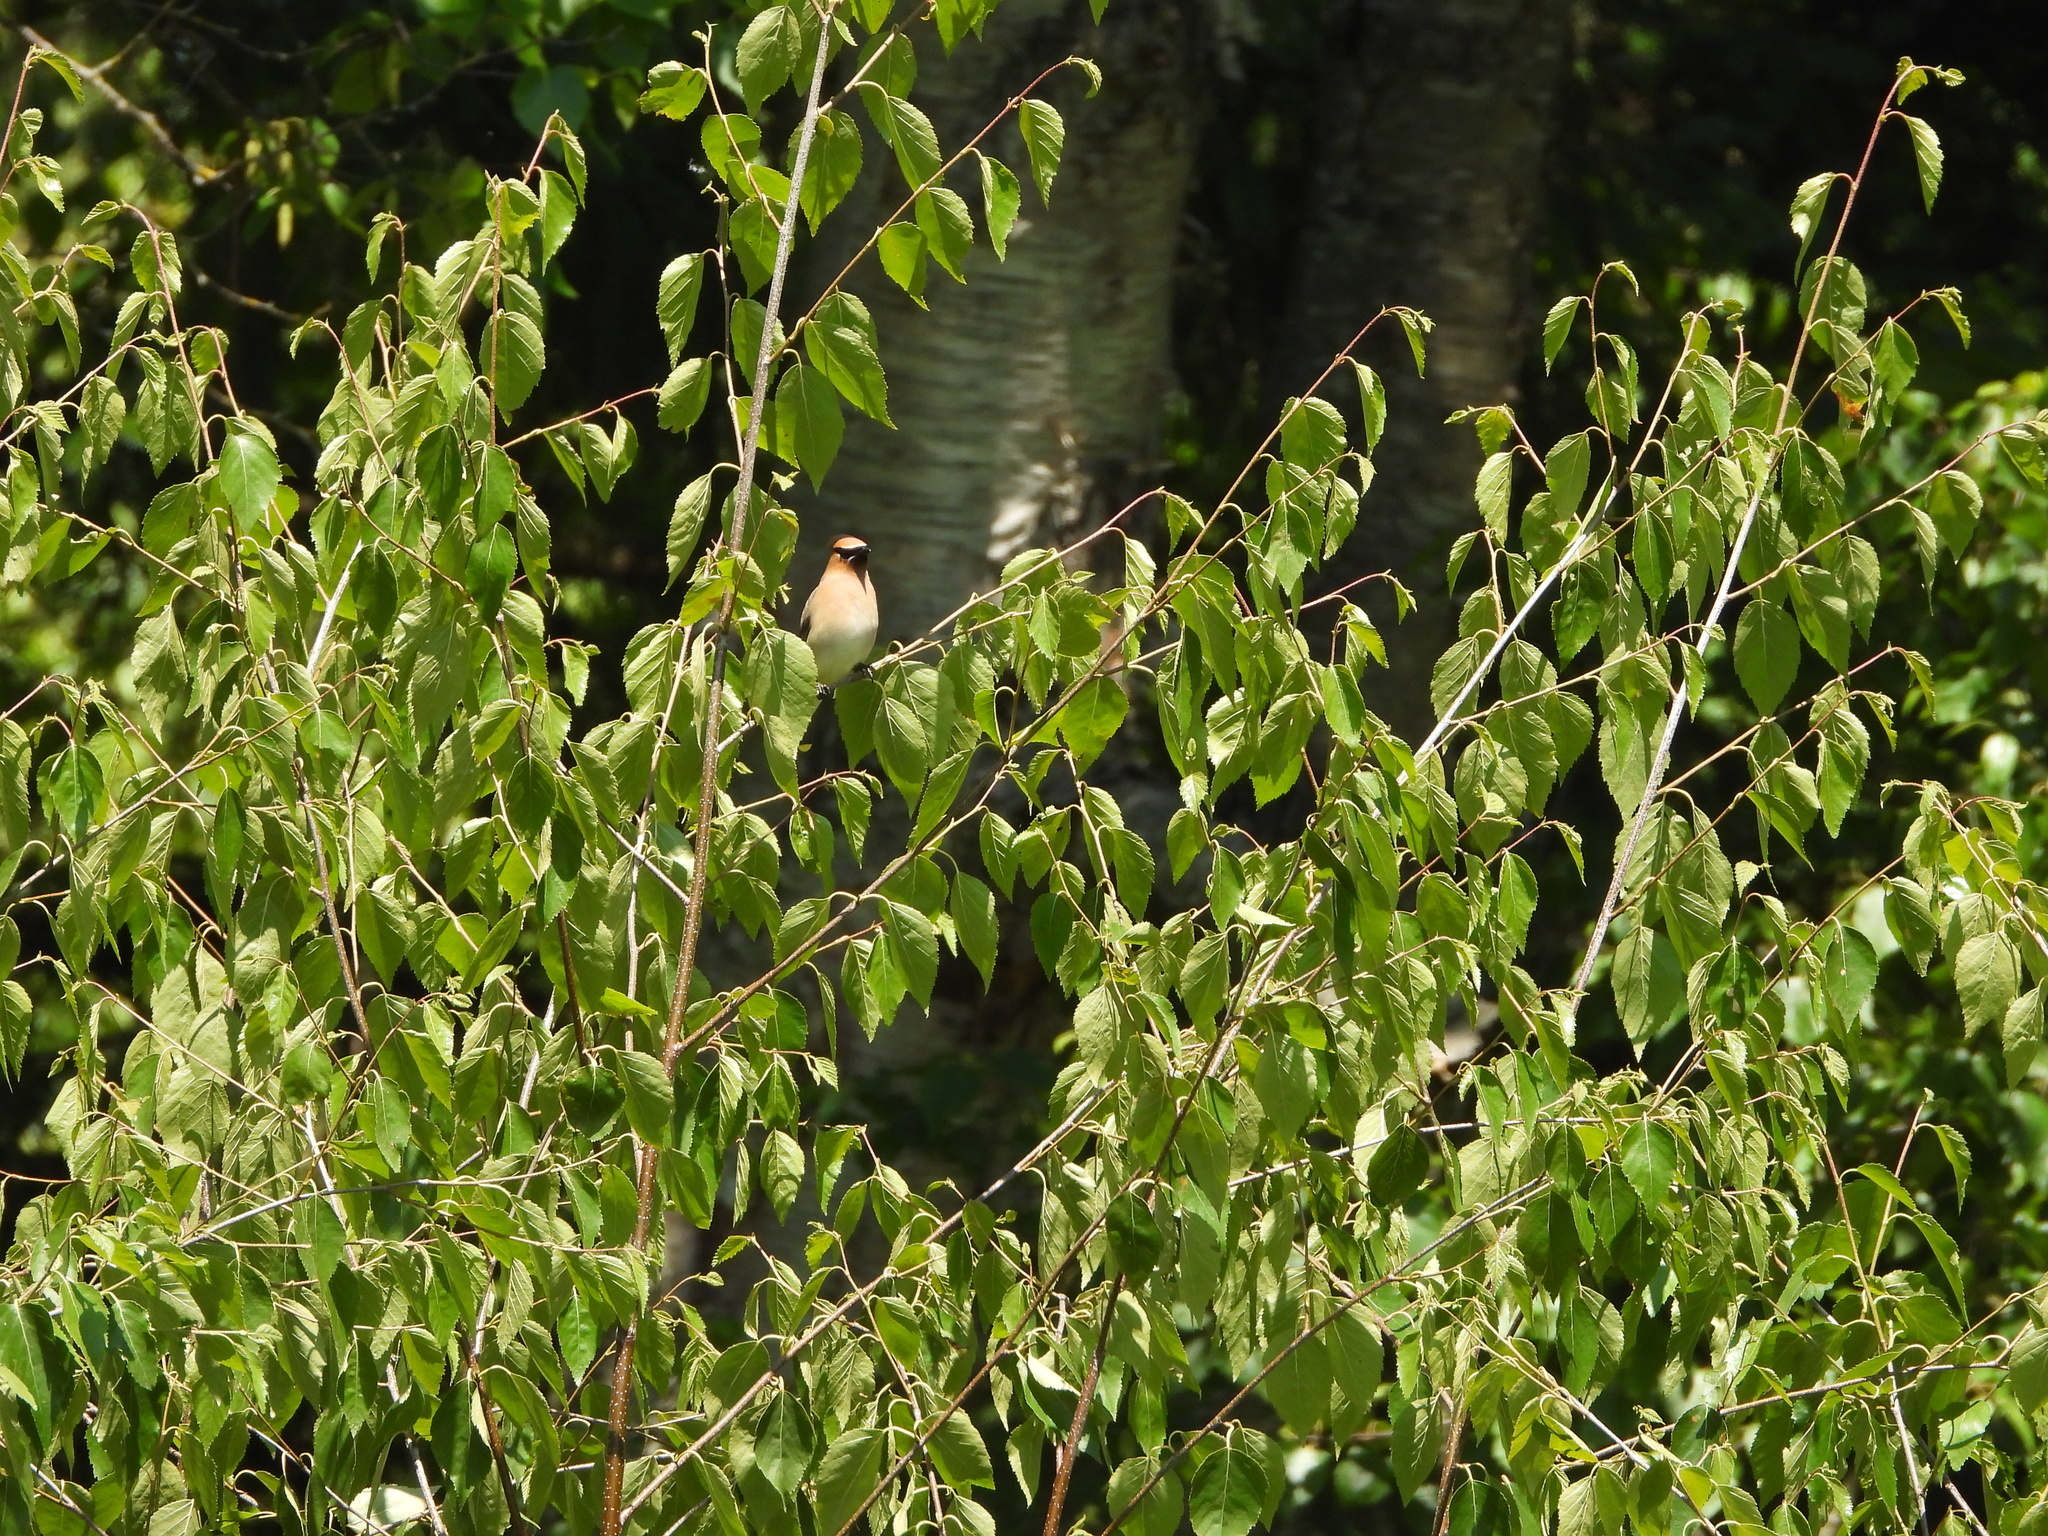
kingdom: Animalia
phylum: Chordata
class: Aves
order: Passeriformes
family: Bombycillidae
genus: Bombycilla
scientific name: Bombycilla cedrorum
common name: Cedar waxwing
